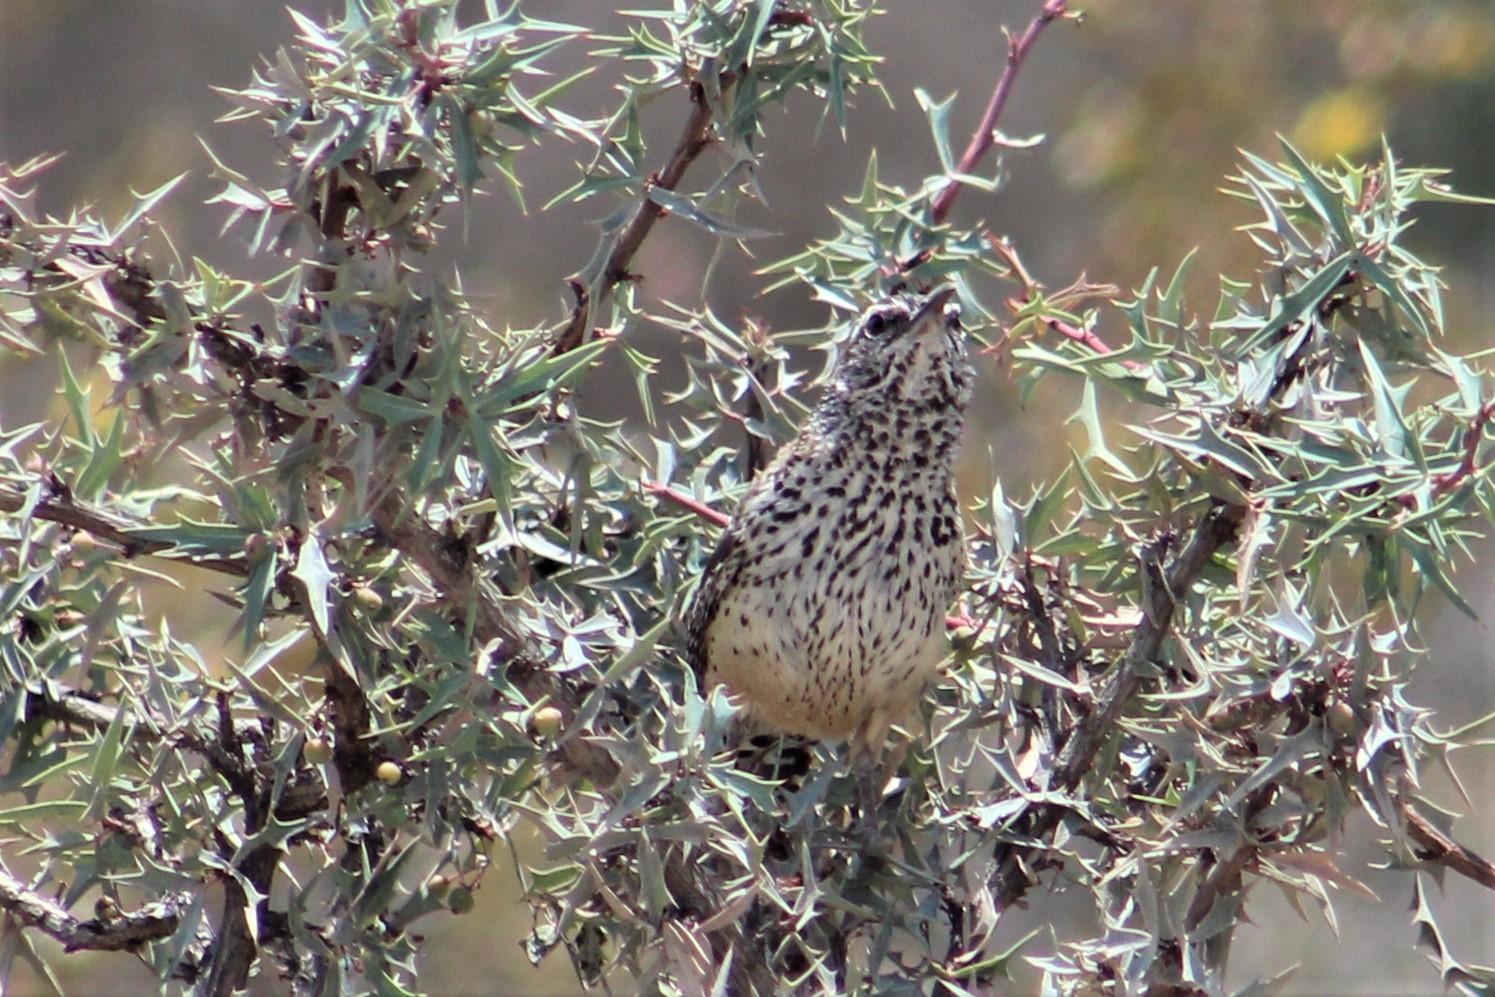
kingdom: Animalia
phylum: Chordata
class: Aves
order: Passeriformes
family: Troglodytidae
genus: Campylorhynchus
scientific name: Campylorhynchus brunneicapillus
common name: Cactus wren
